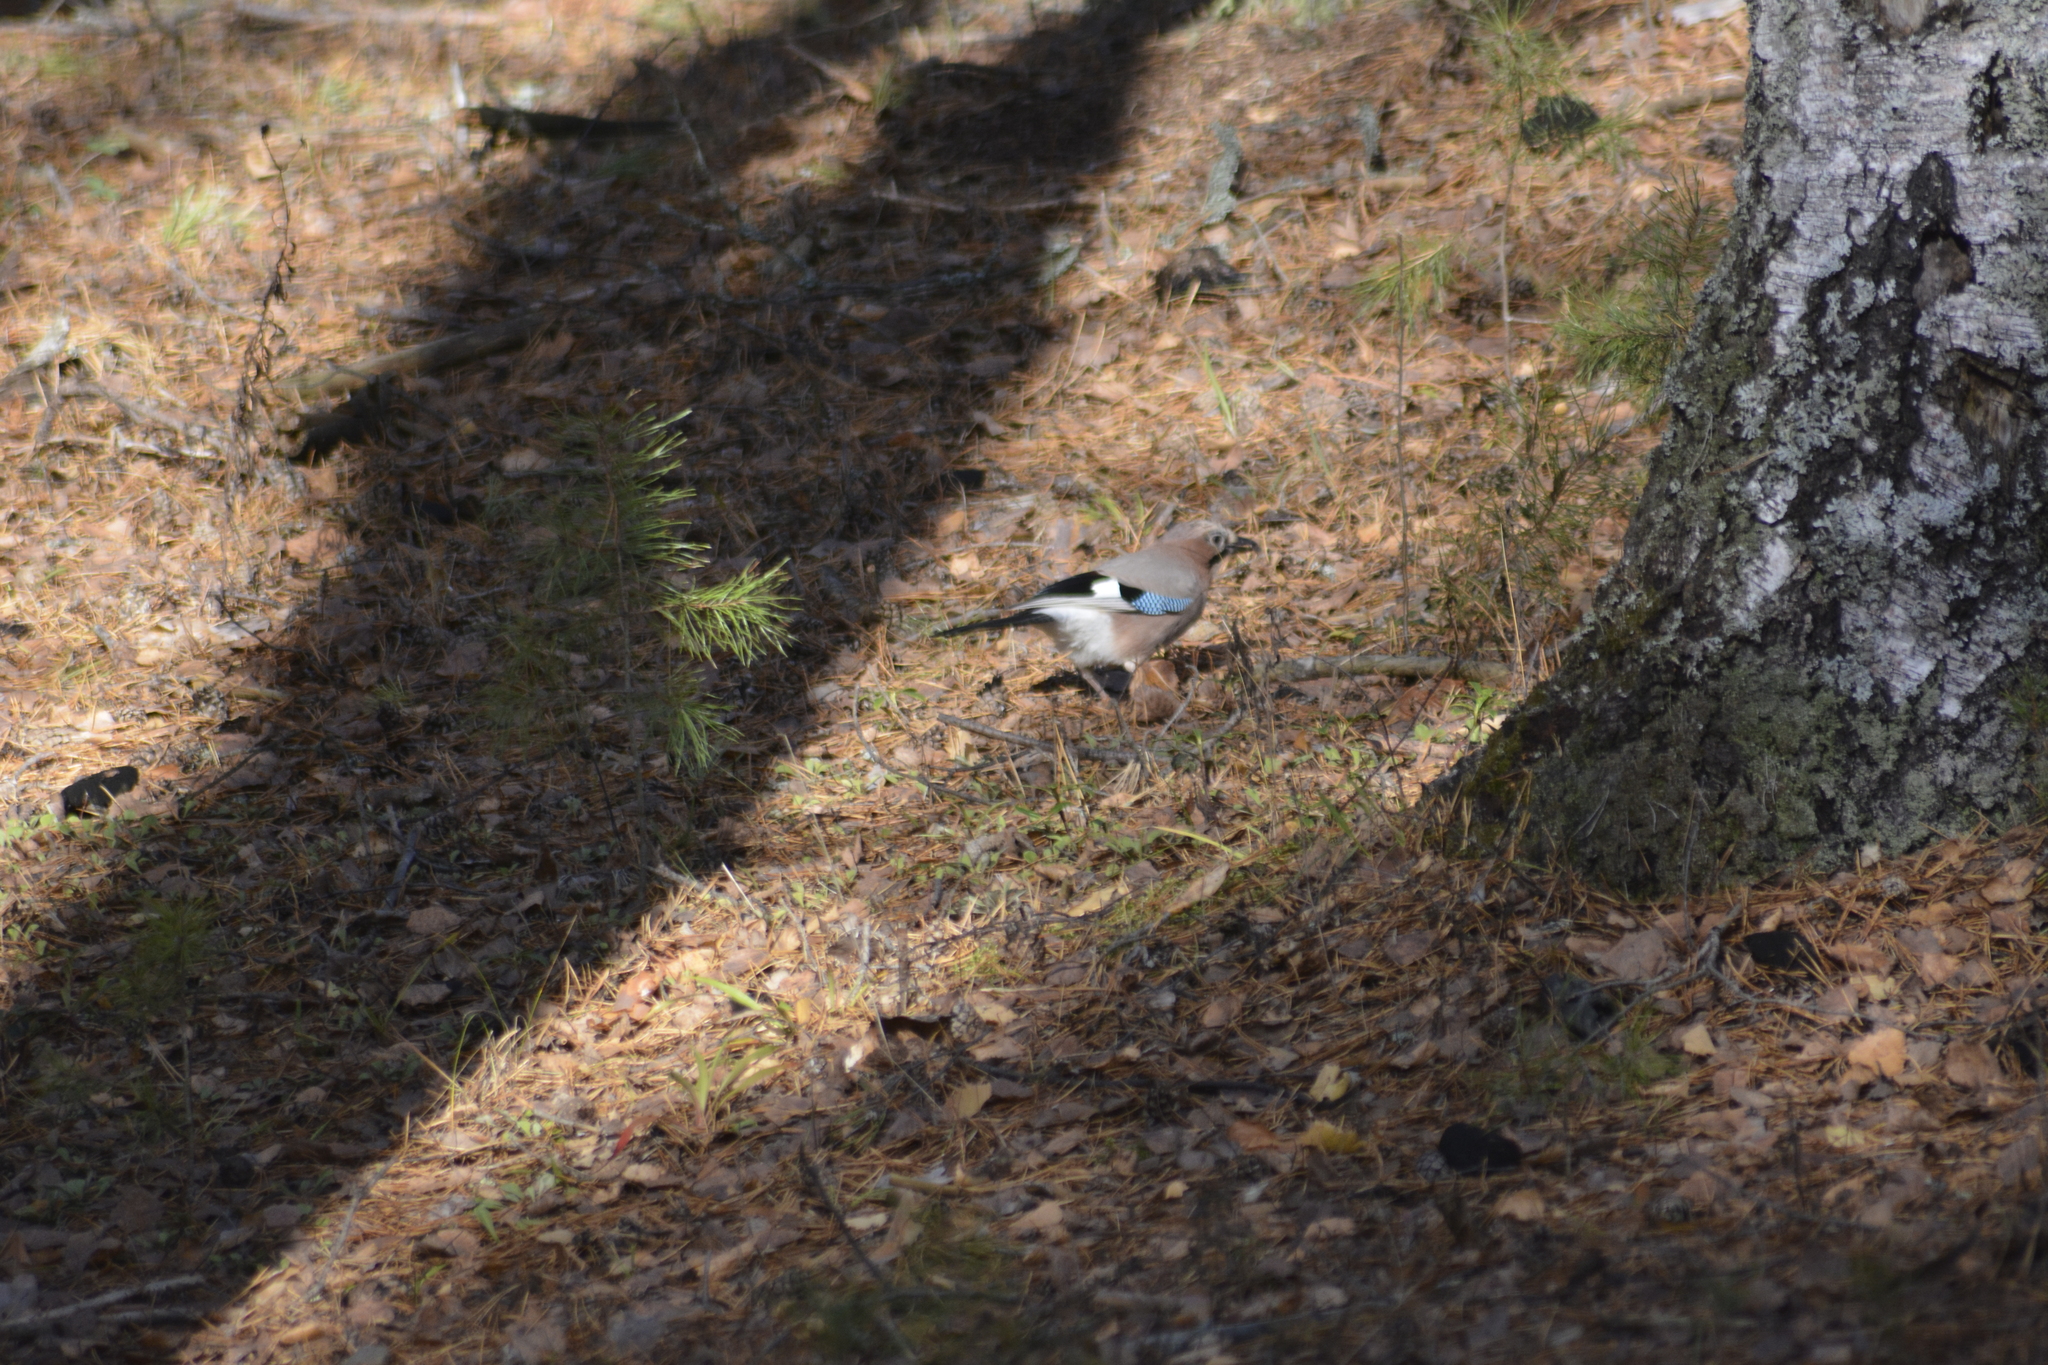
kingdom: Animalia
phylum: Chordata
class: Aves
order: Passeriformes
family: Corvidae
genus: Garrulus
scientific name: Garrulus glandarius
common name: Eurasian jay
